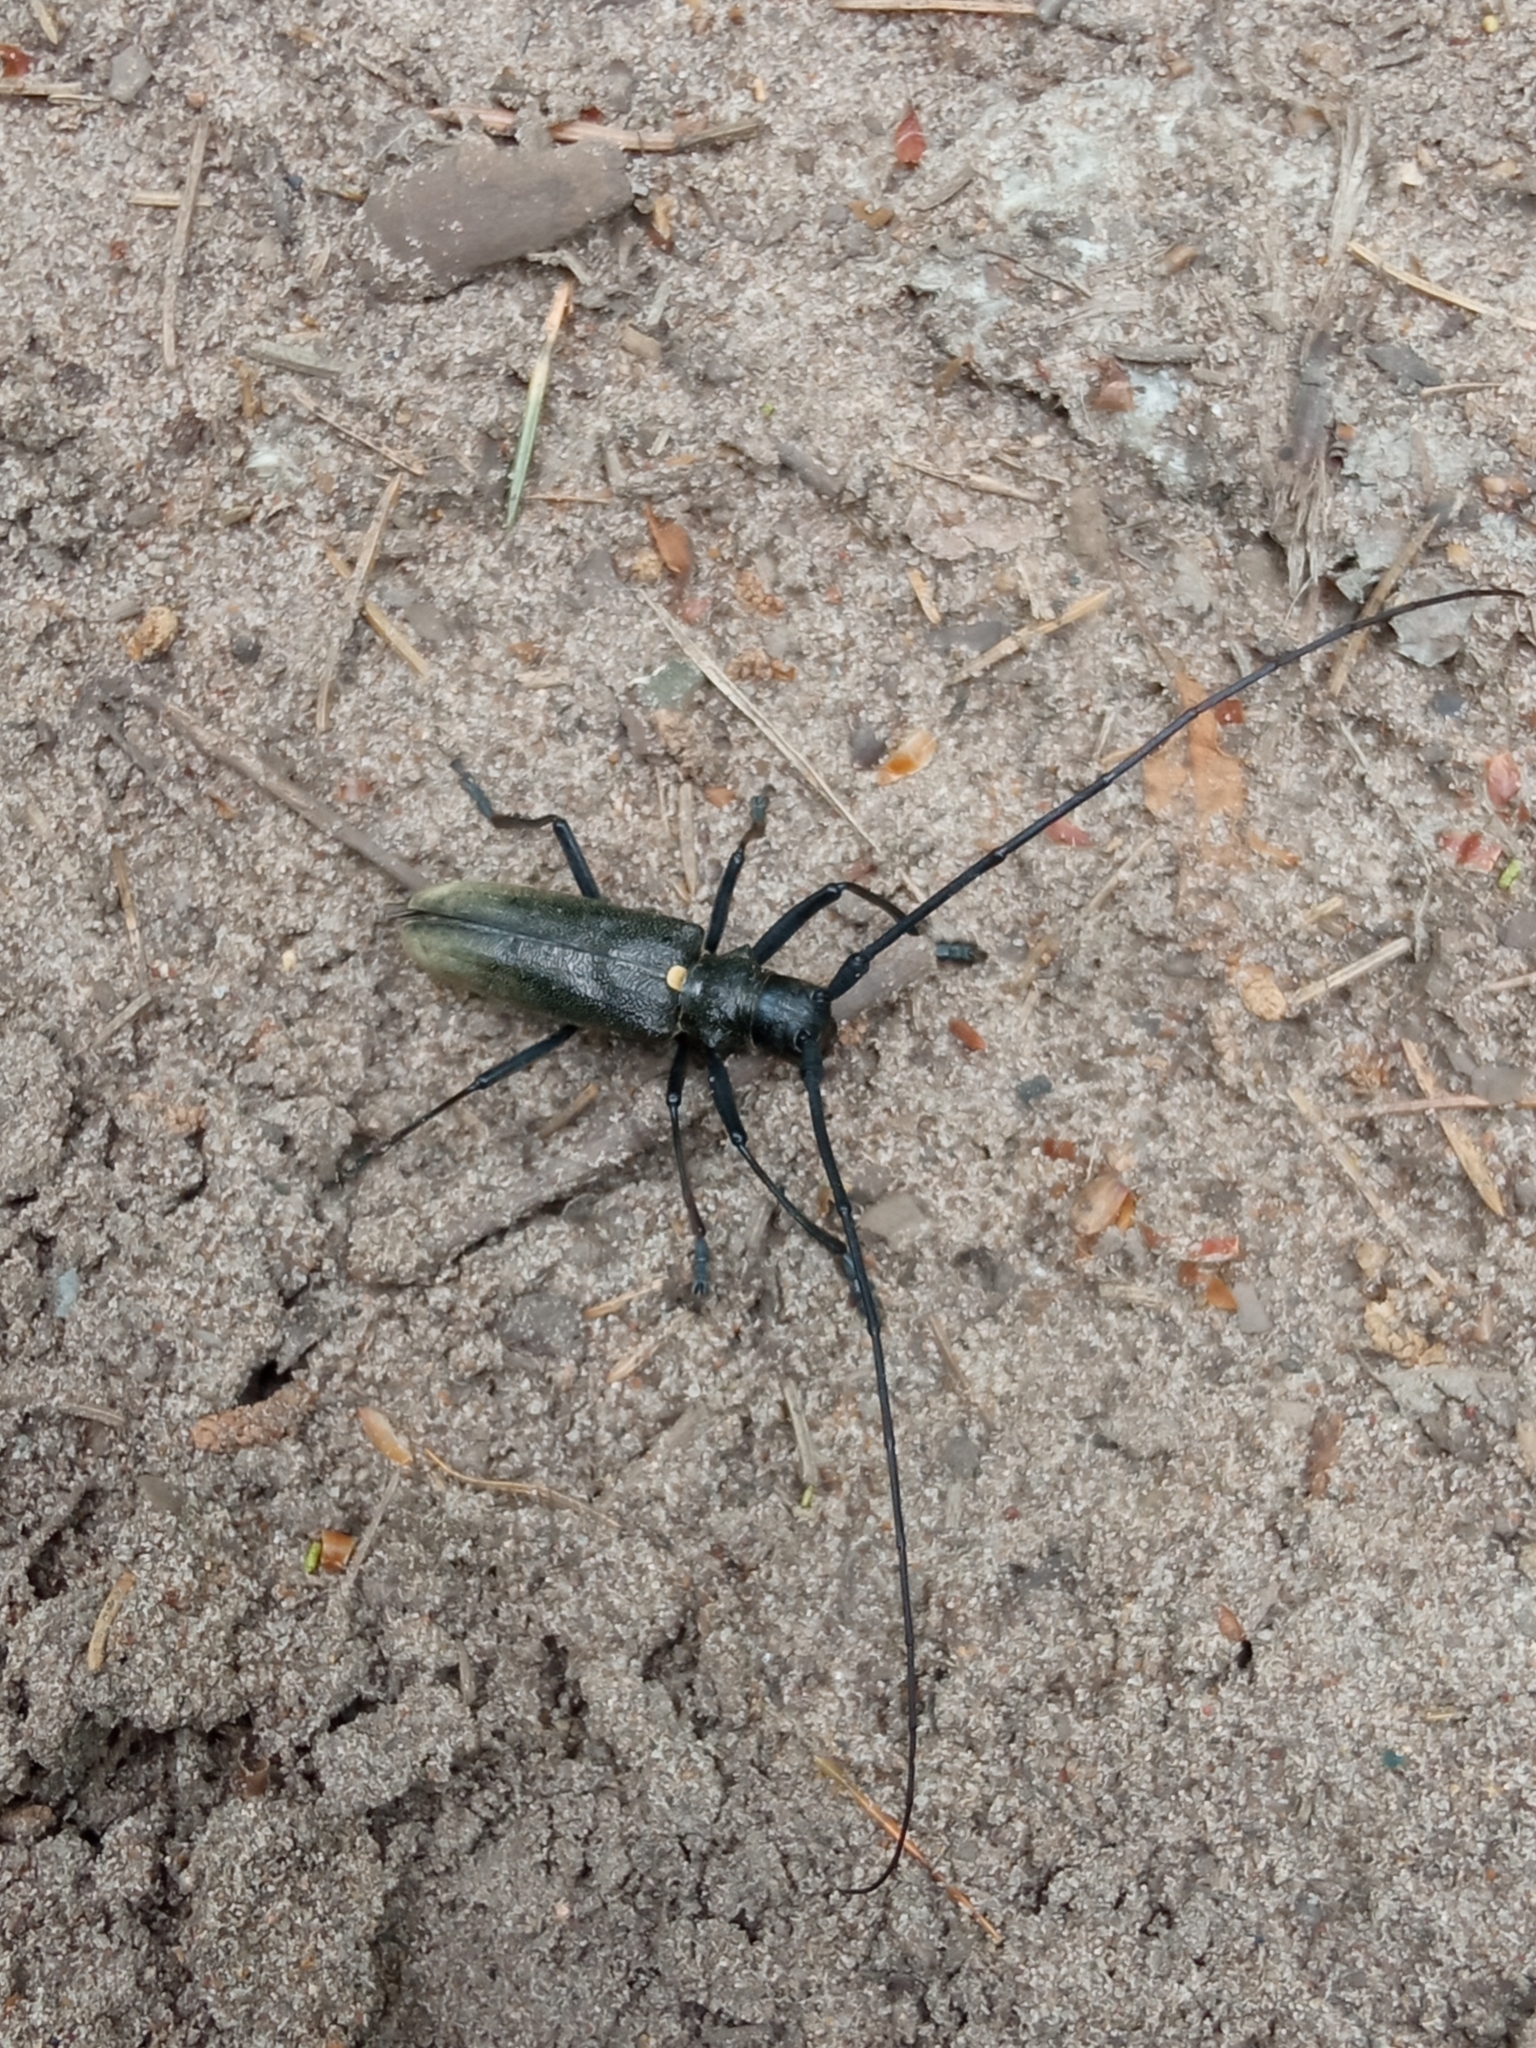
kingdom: Animalia
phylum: Arthropoda
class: Insecta
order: Coleoptera
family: Cerambycidae
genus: Monochamus
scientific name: Monochamus sartor
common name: Pine sawyer
